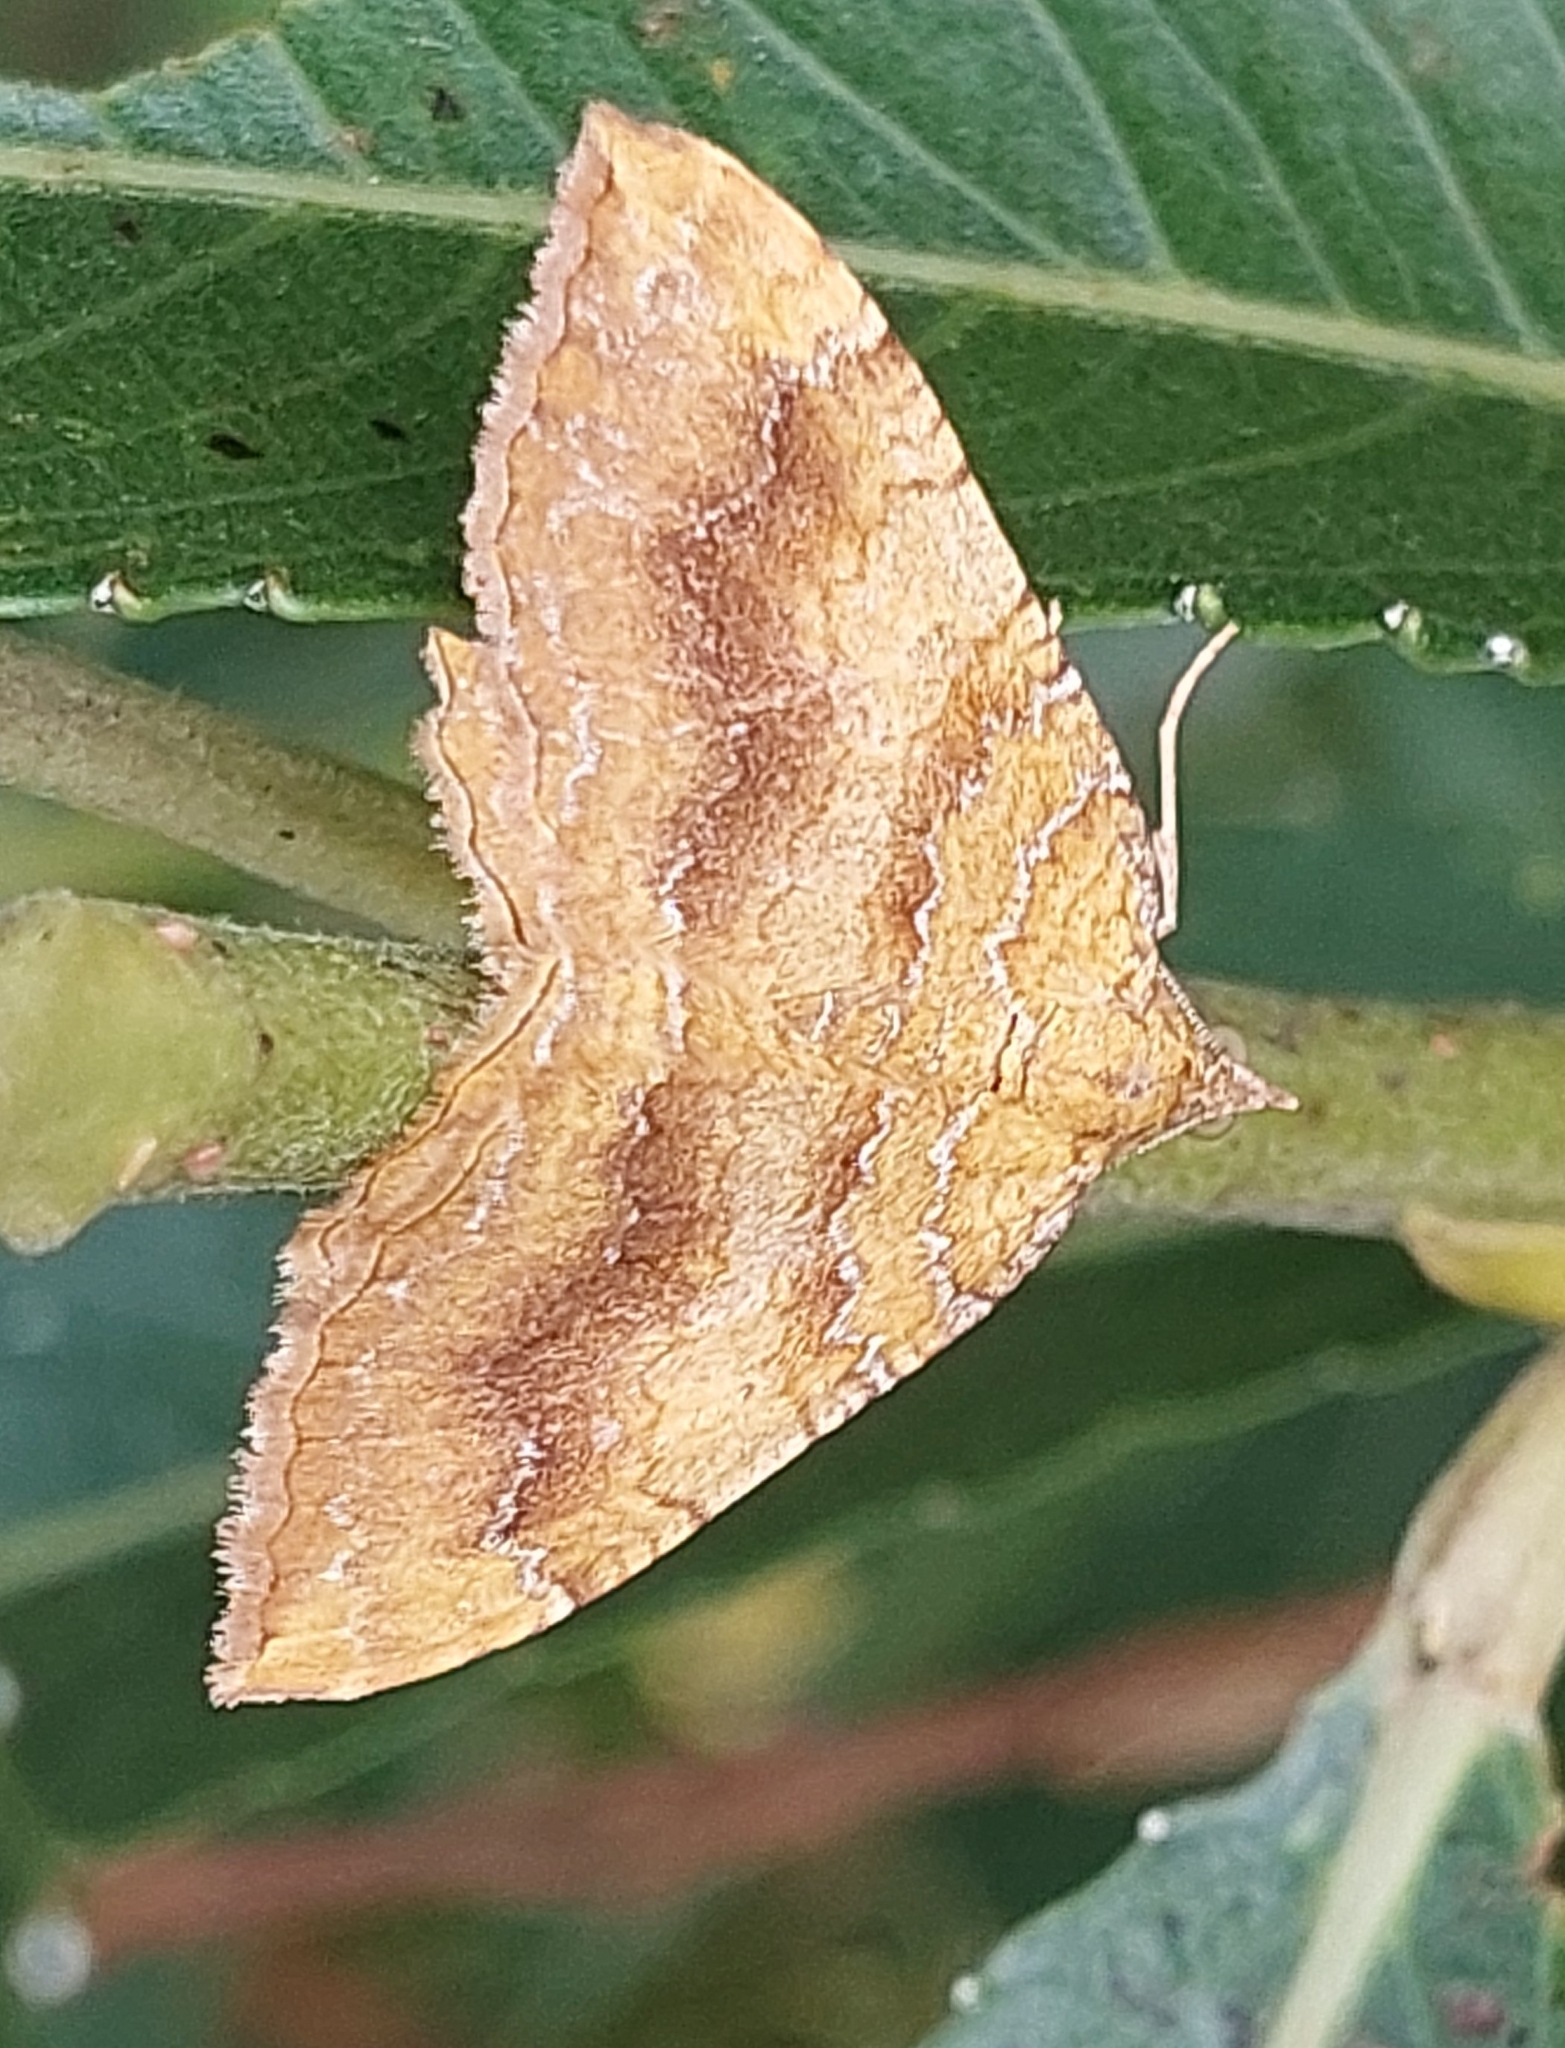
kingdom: Animalia
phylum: Arthropoda
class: Insecta
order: Lepidoptera
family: Geometridae
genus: Camptogramma
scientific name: Camptogramma bilineata
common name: Yellow shell
